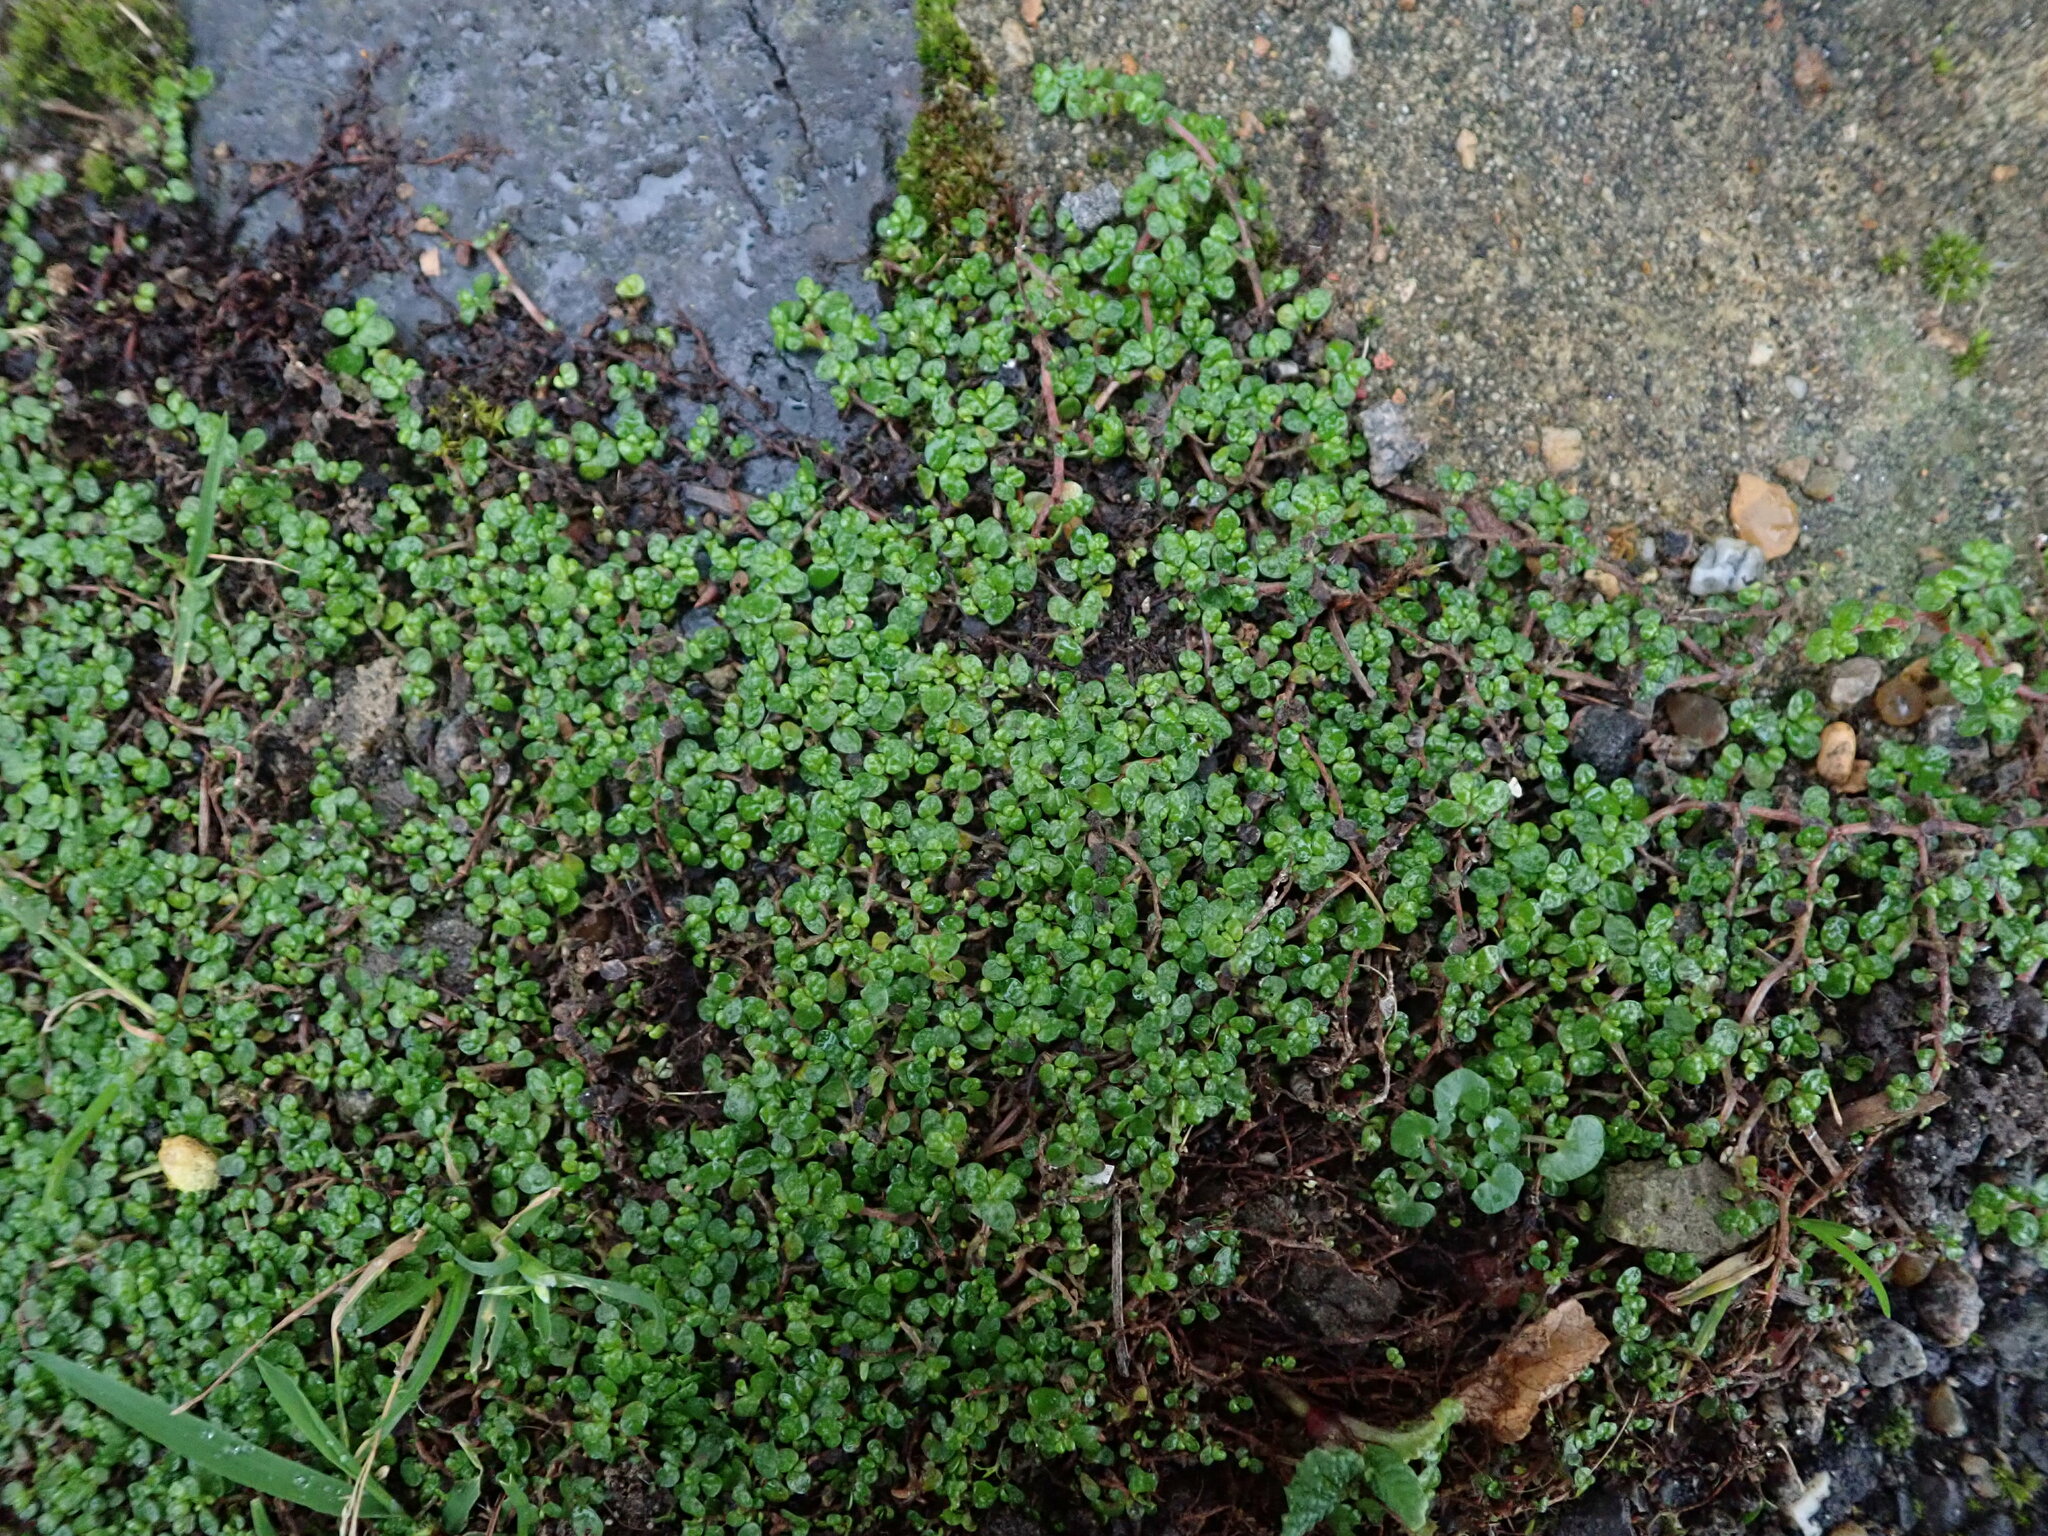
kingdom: Plantae
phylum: Tracheophyta
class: Magnoliopsida
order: Rosales
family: Urticaceae
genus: Soleirolia
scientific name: Soleirolia soleirolii
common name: Mind-your-own-business
